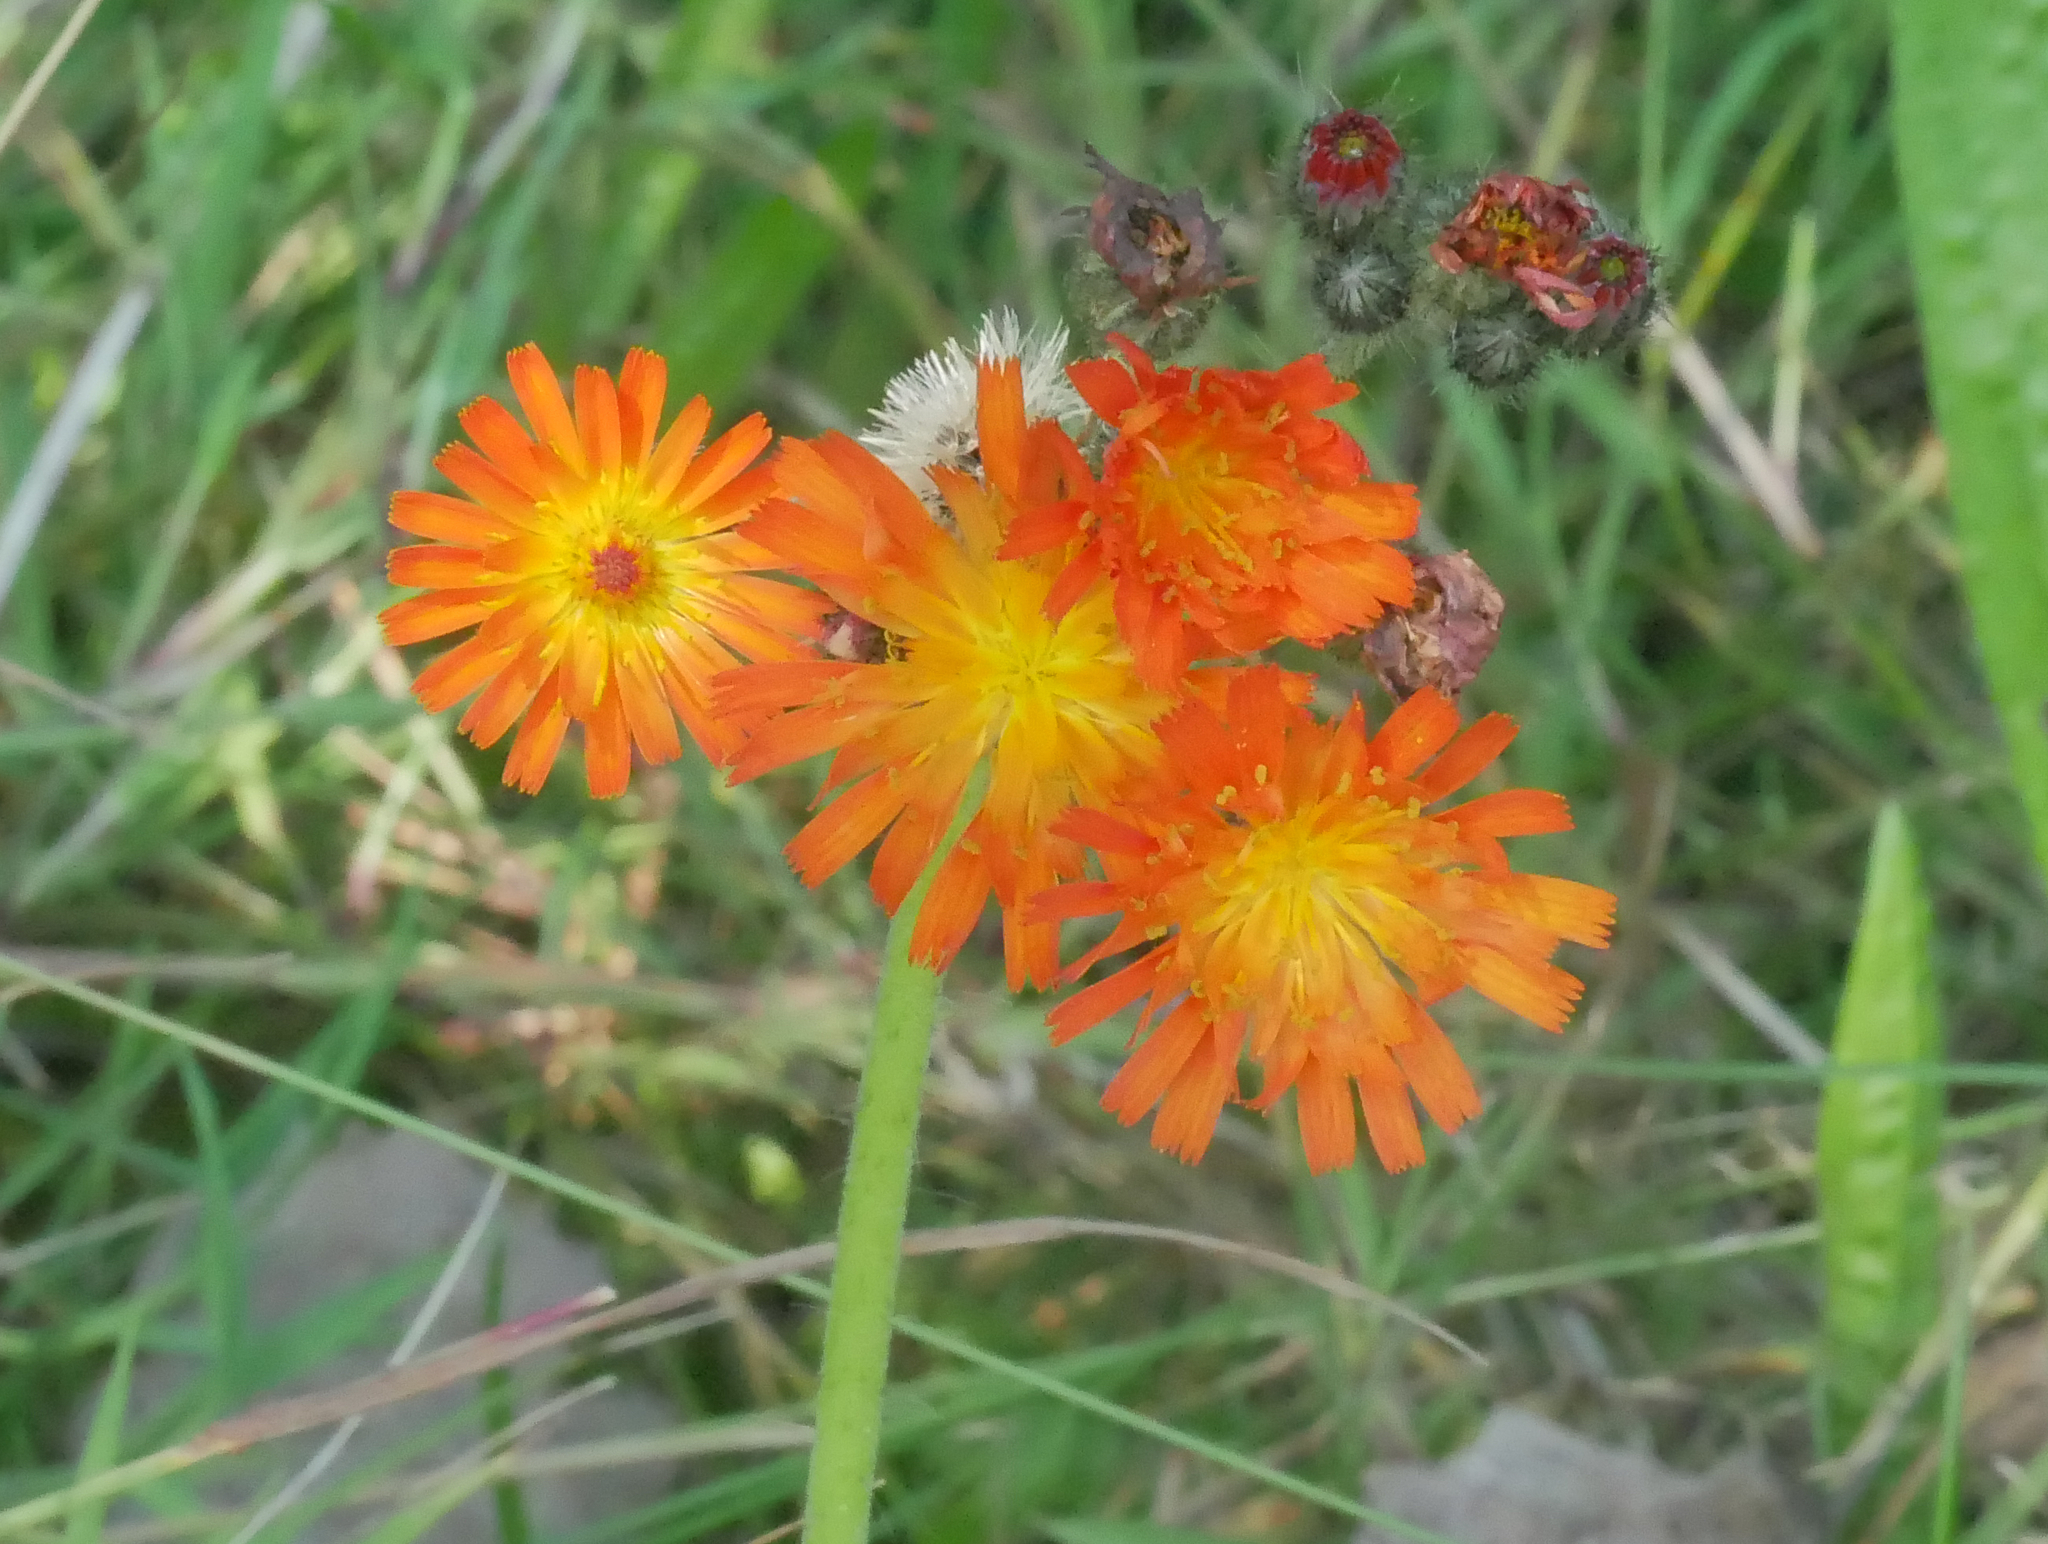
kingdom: Plantae
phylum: Tracheophyta
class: Magnoliopsida
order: Asterales
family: Asteraceae
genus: Pilosella
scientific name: Pilosella aurantiaca
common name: Fox-and-cubs
